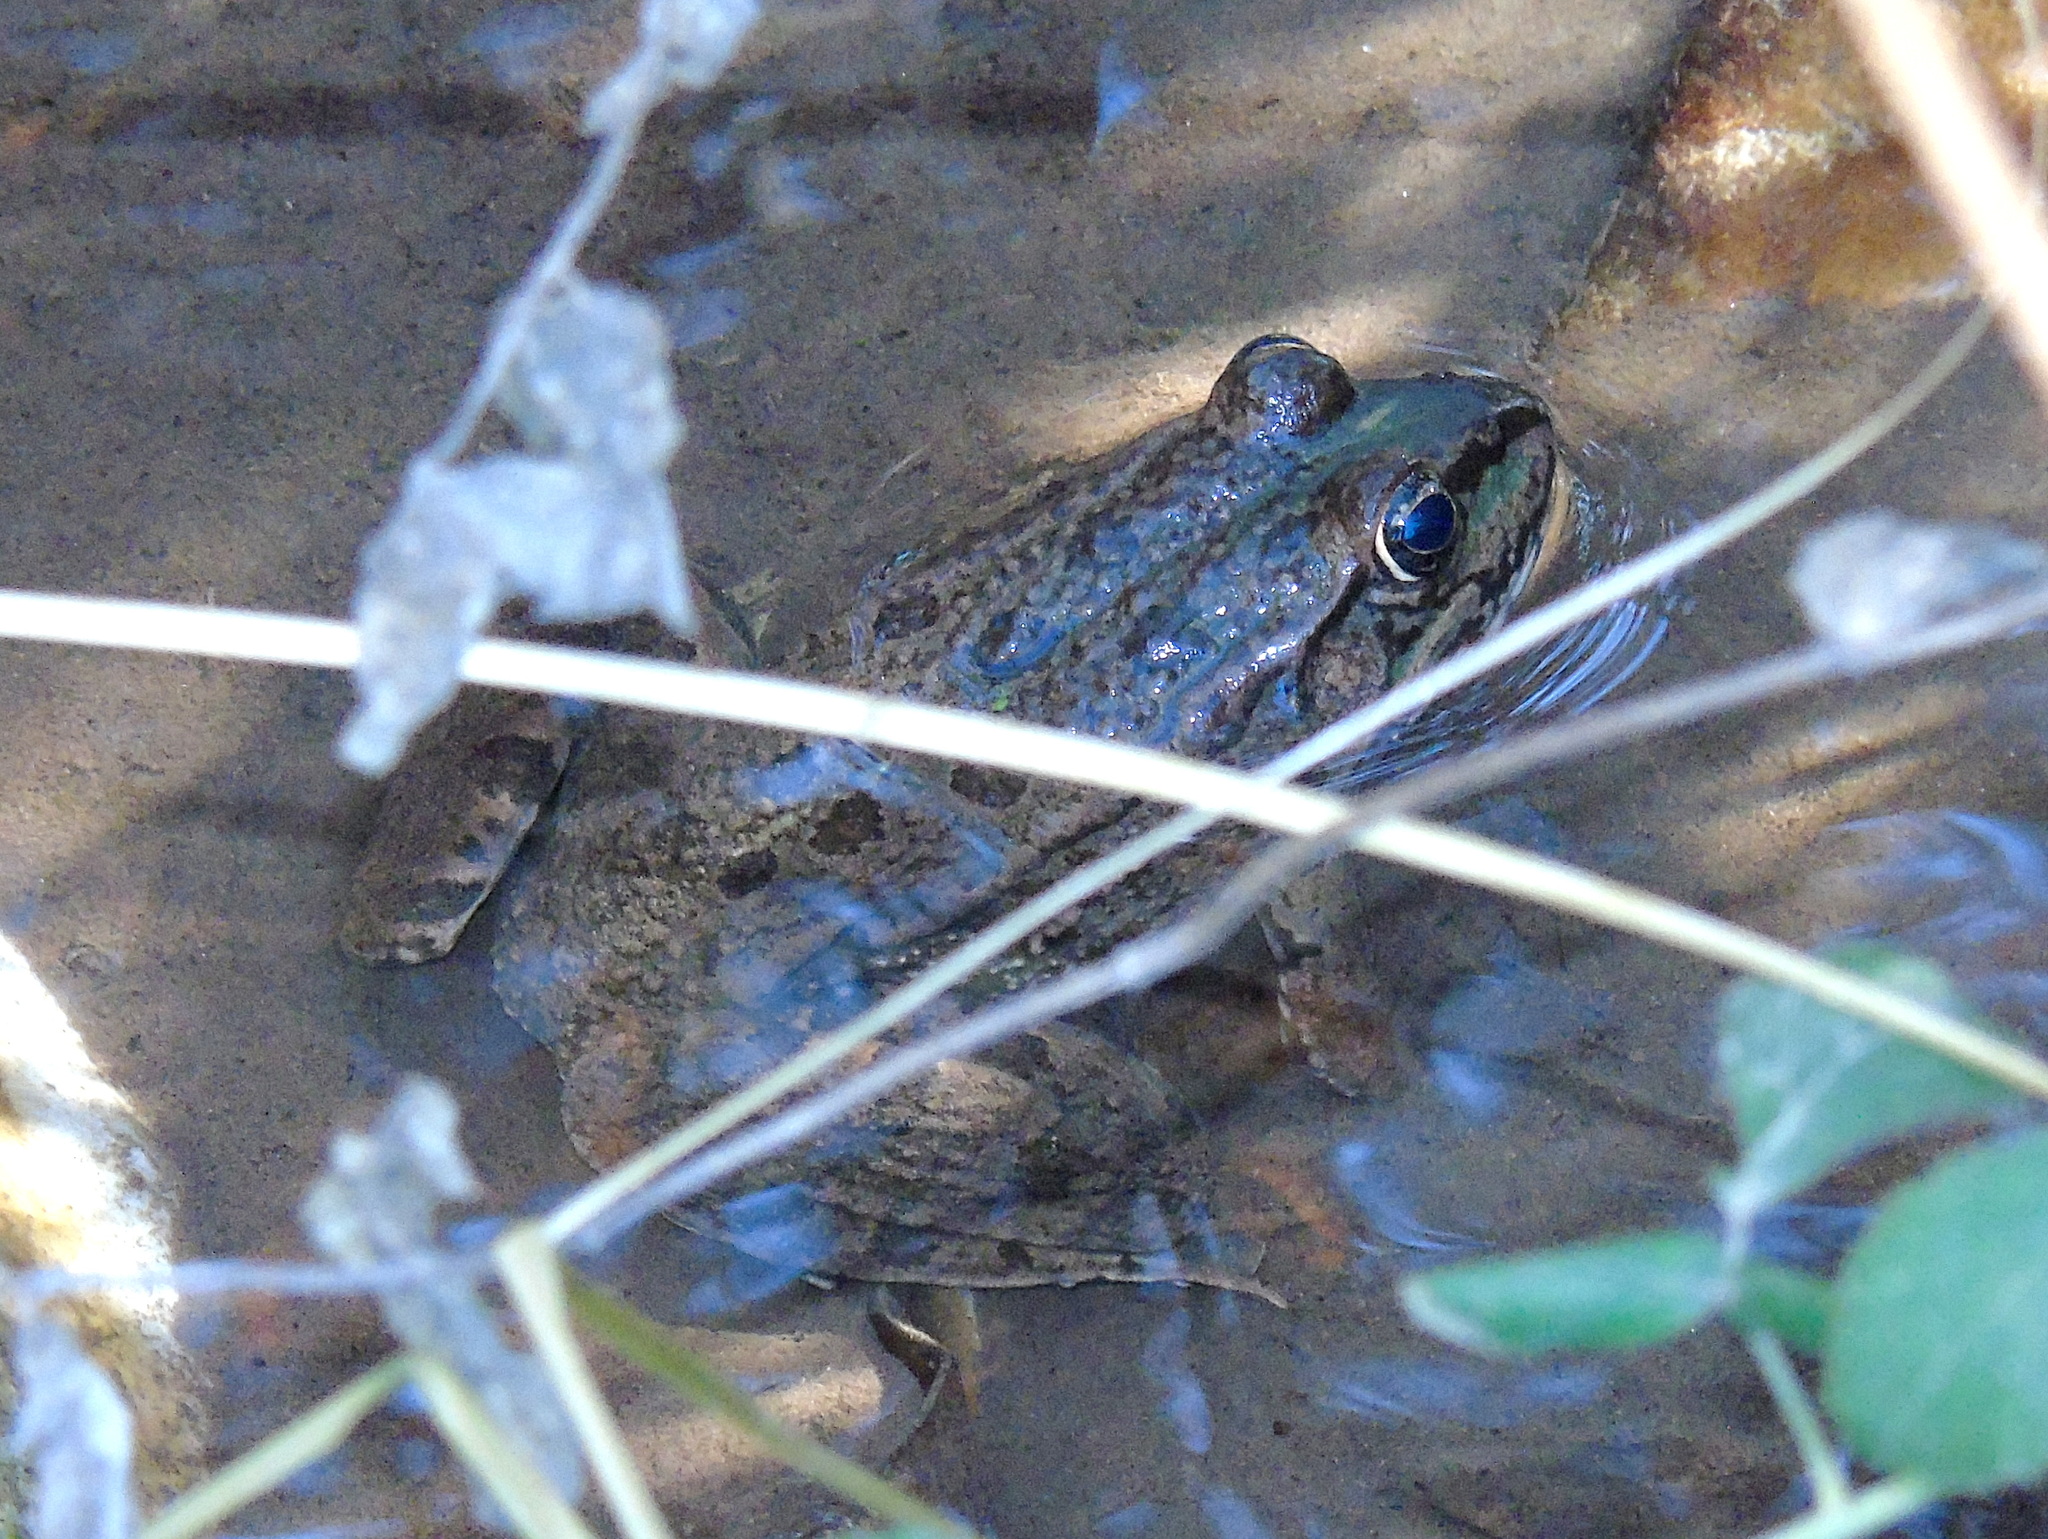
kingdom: Animalia
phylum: Chordata
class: Amphibia
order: Anura
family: Ranidae
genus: Pelophylax
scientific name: Pelophylax ridibundus
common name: Marsh frog
